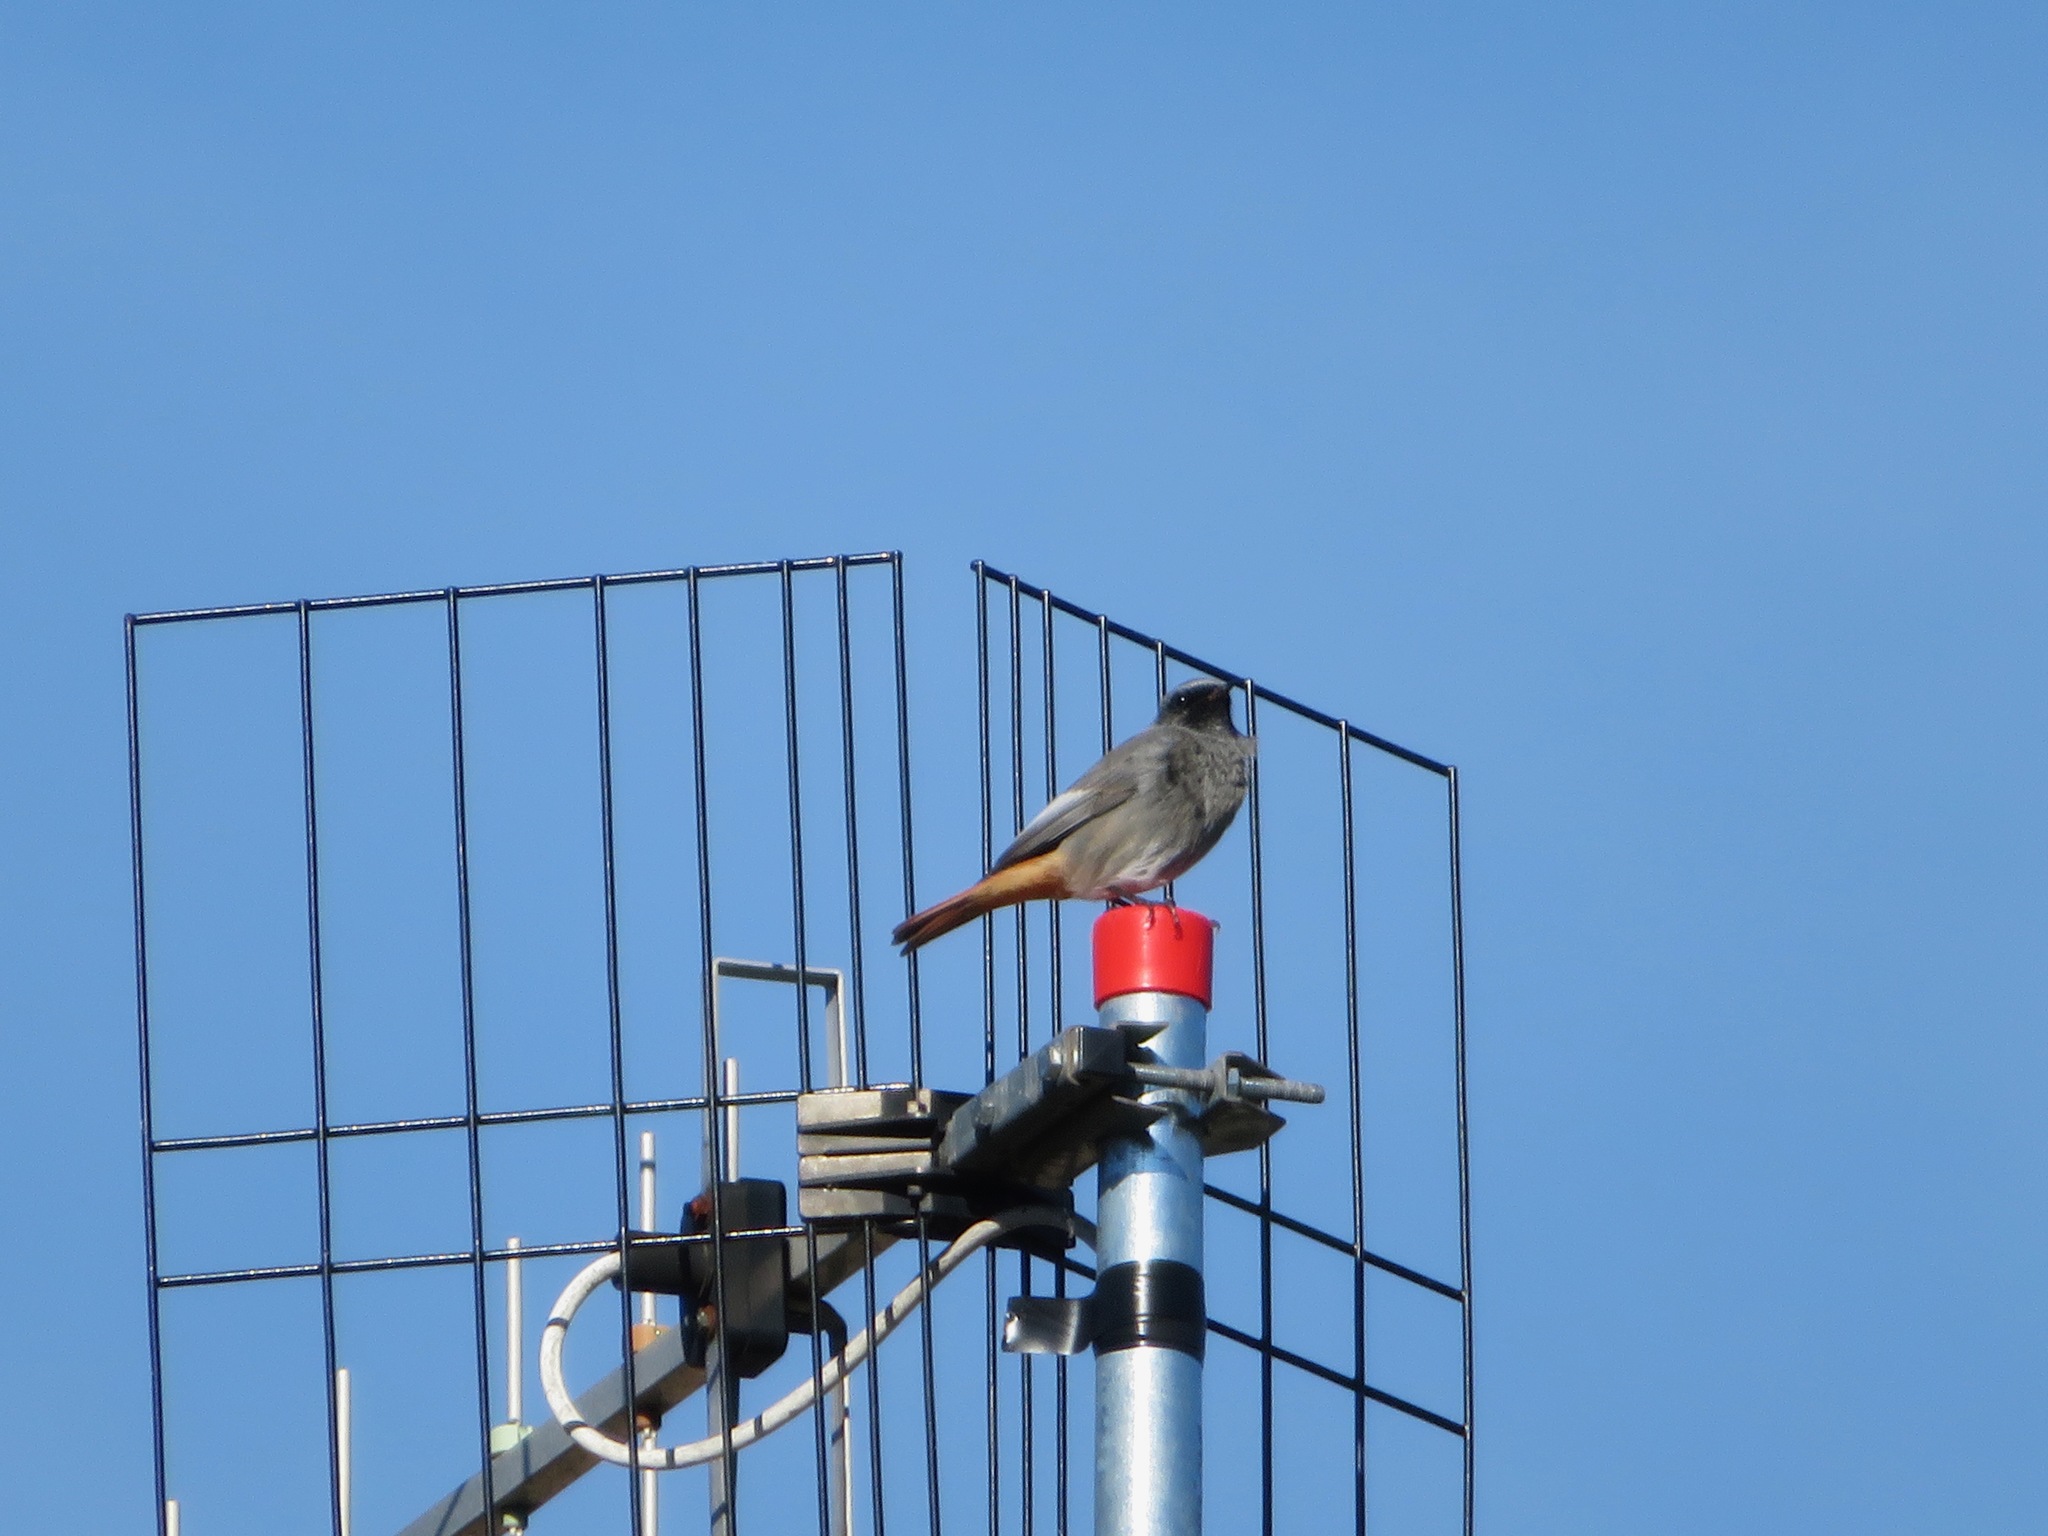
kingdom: Animalia
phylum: Chordata
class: Aves
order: Passeriformes
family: Muscicapidae
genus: Phoenicurus
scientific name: Phoenicurus ochruros
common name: Black redstart
